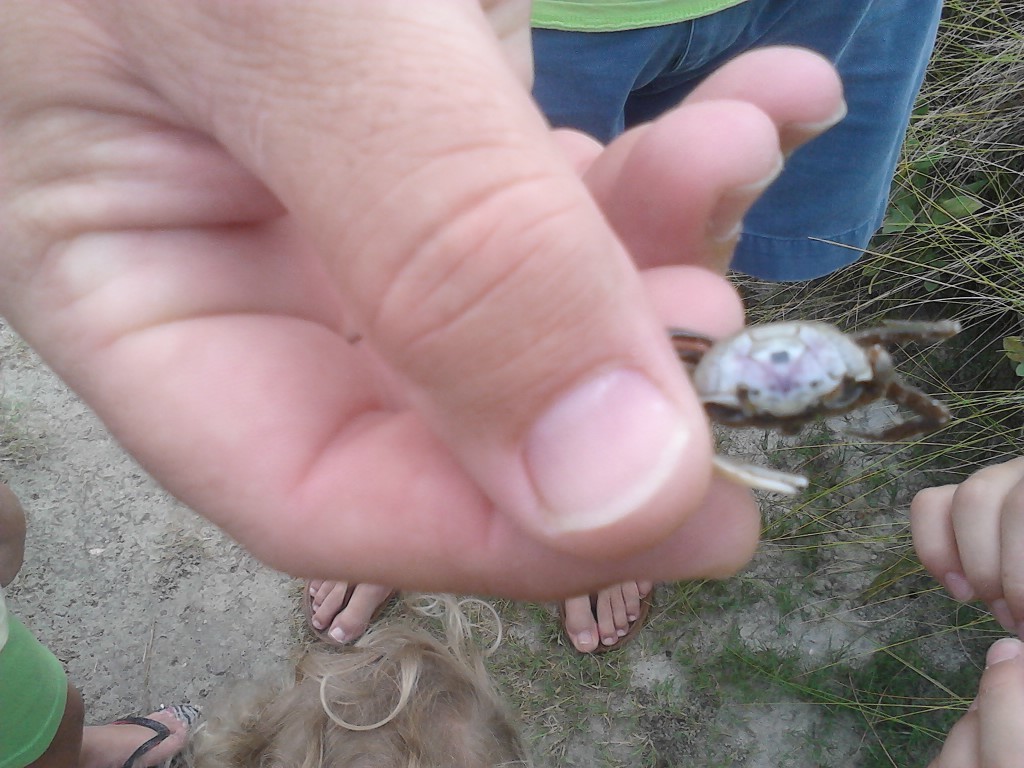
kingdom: Animalia
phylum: Arthropoda
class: Malacostraca
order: Decapoda
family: Ocypodidae
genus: Leptuca
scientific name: Leptuca pugilator
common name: Atlantic sand fiddler crab
